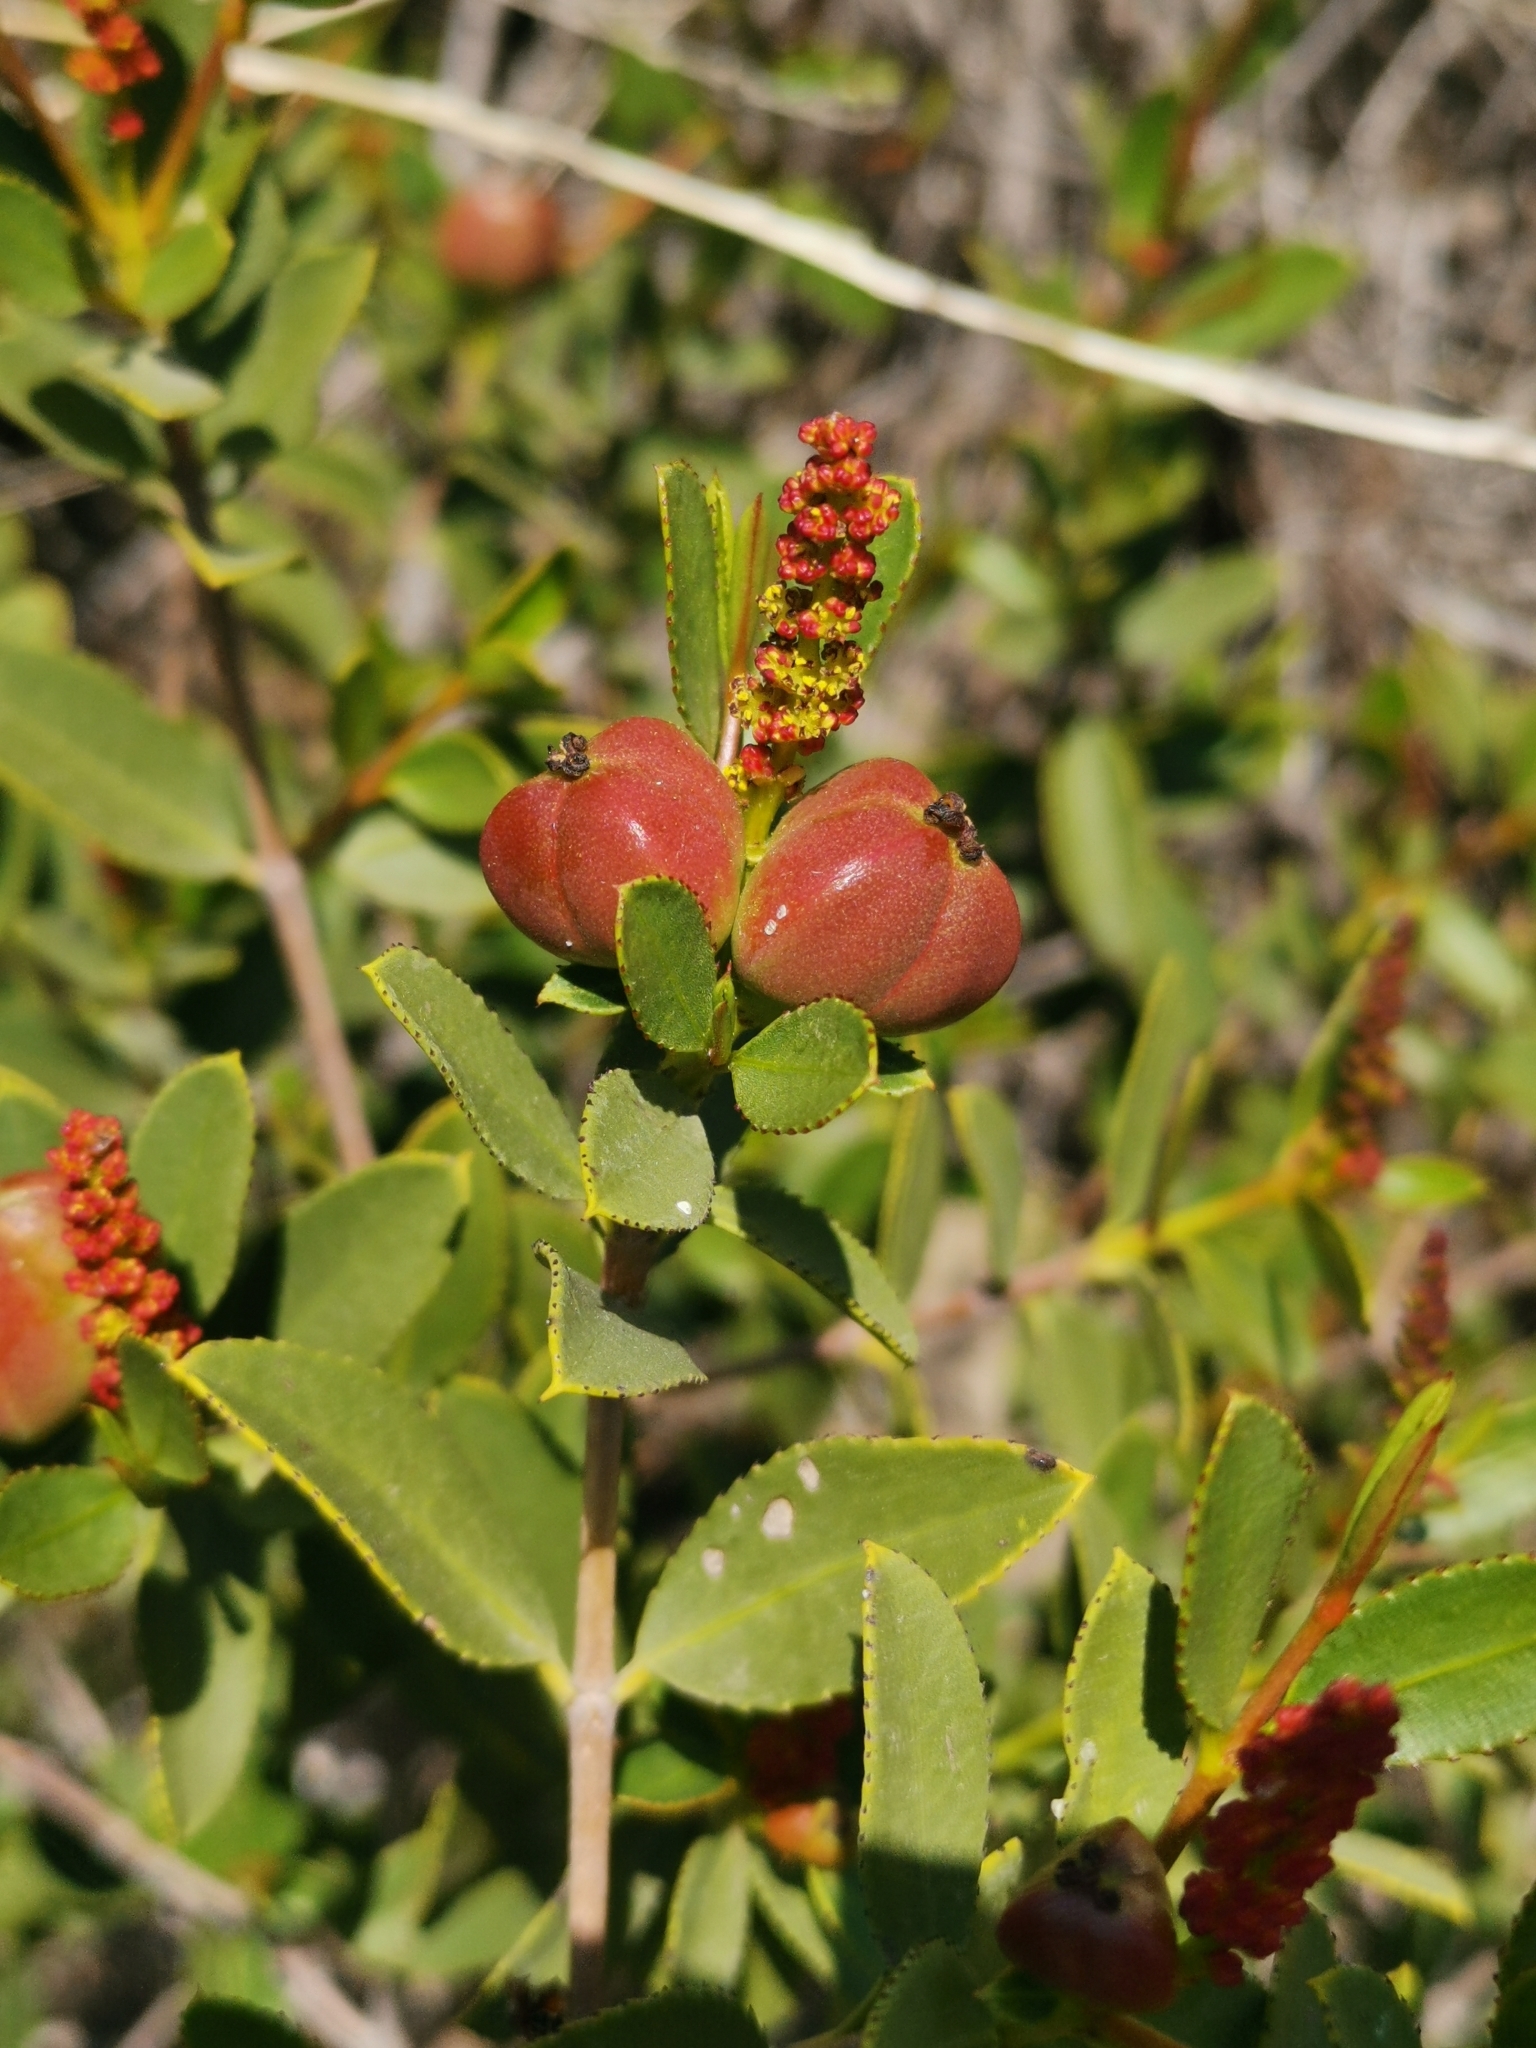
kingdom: Plantae
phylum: Tracheophyta
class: Magnoliopsida
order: Malpighiales
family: Euphorbiaceae
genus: Colliguaja
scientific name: Colliguaja odorifera
